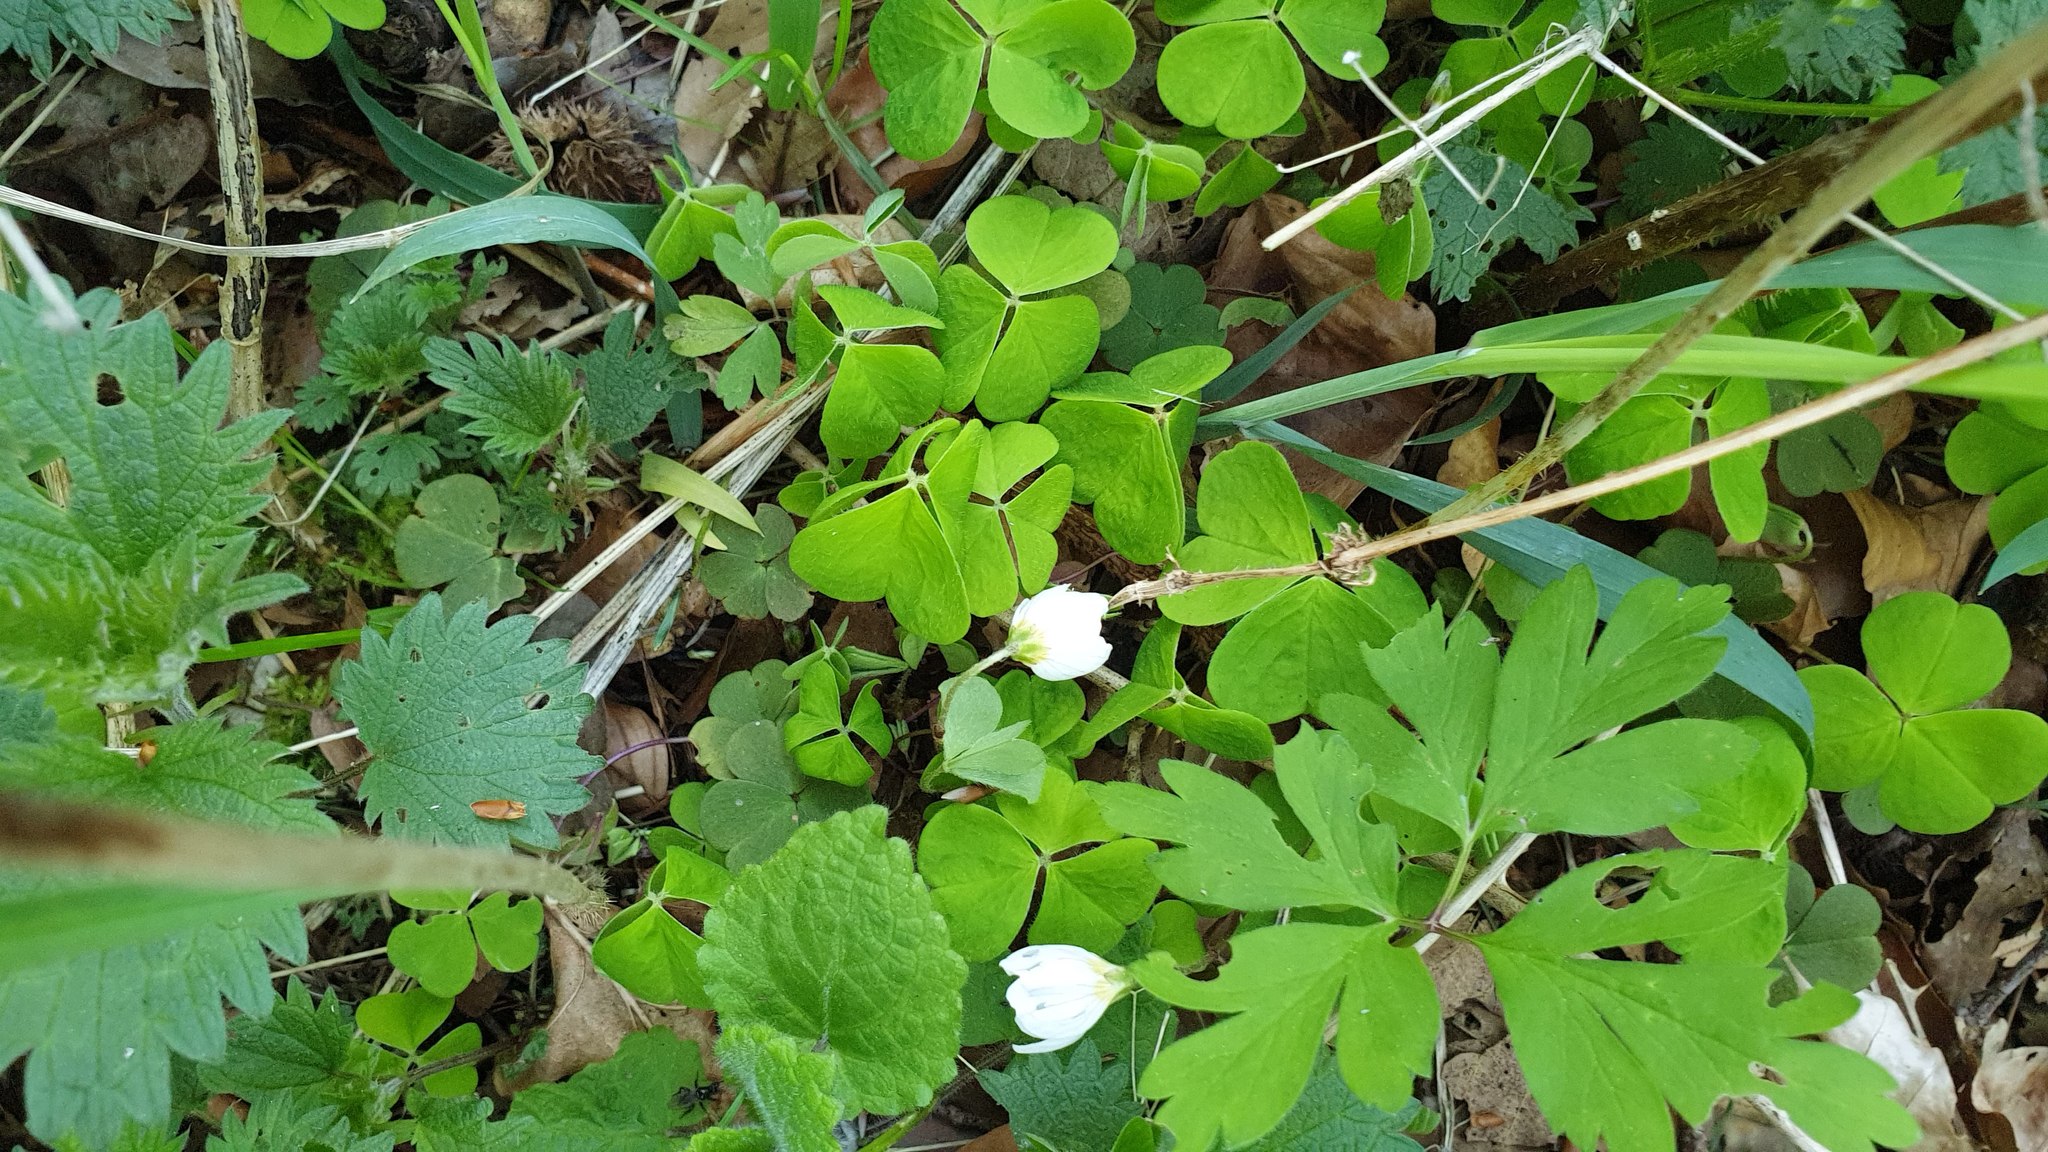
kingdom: Plantae
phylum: Tracheophyta
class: Magnoliopsida
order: Oxalidales
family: Oxalidaceae
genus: Oxalis
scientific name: Oxalis acetosella
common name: Wood-sorrel
